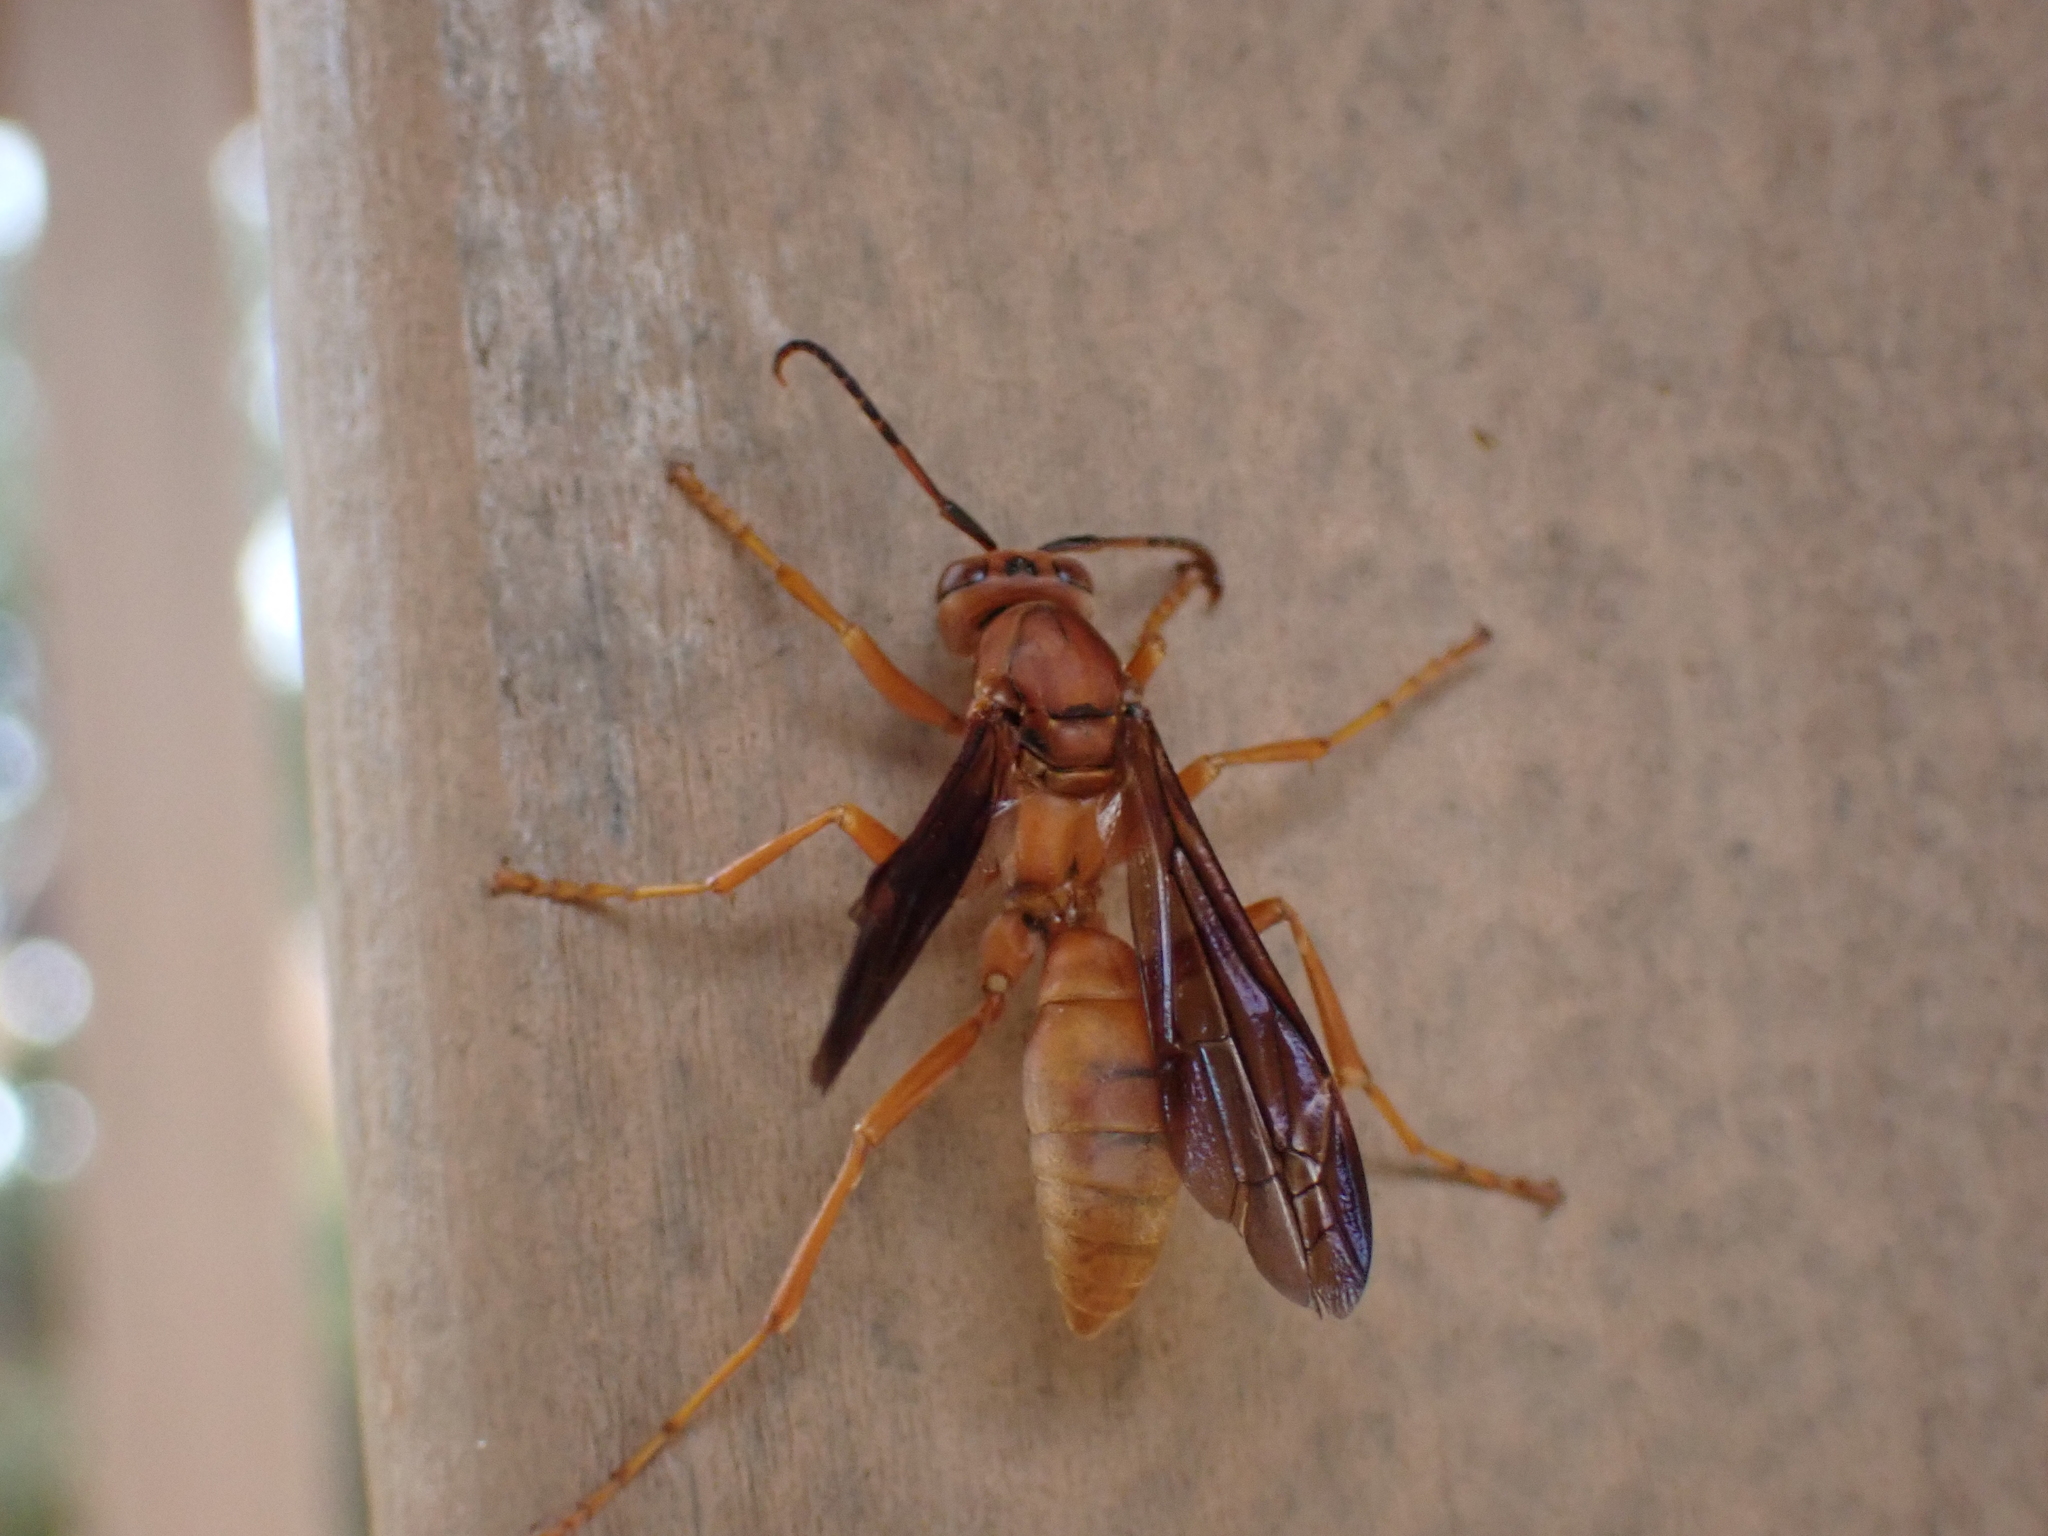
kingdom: Animalia
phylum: Arthropoda
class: Insecta
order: Hymenoptera
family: Eumenidae
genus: Polistes
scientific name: Polistes carolina
